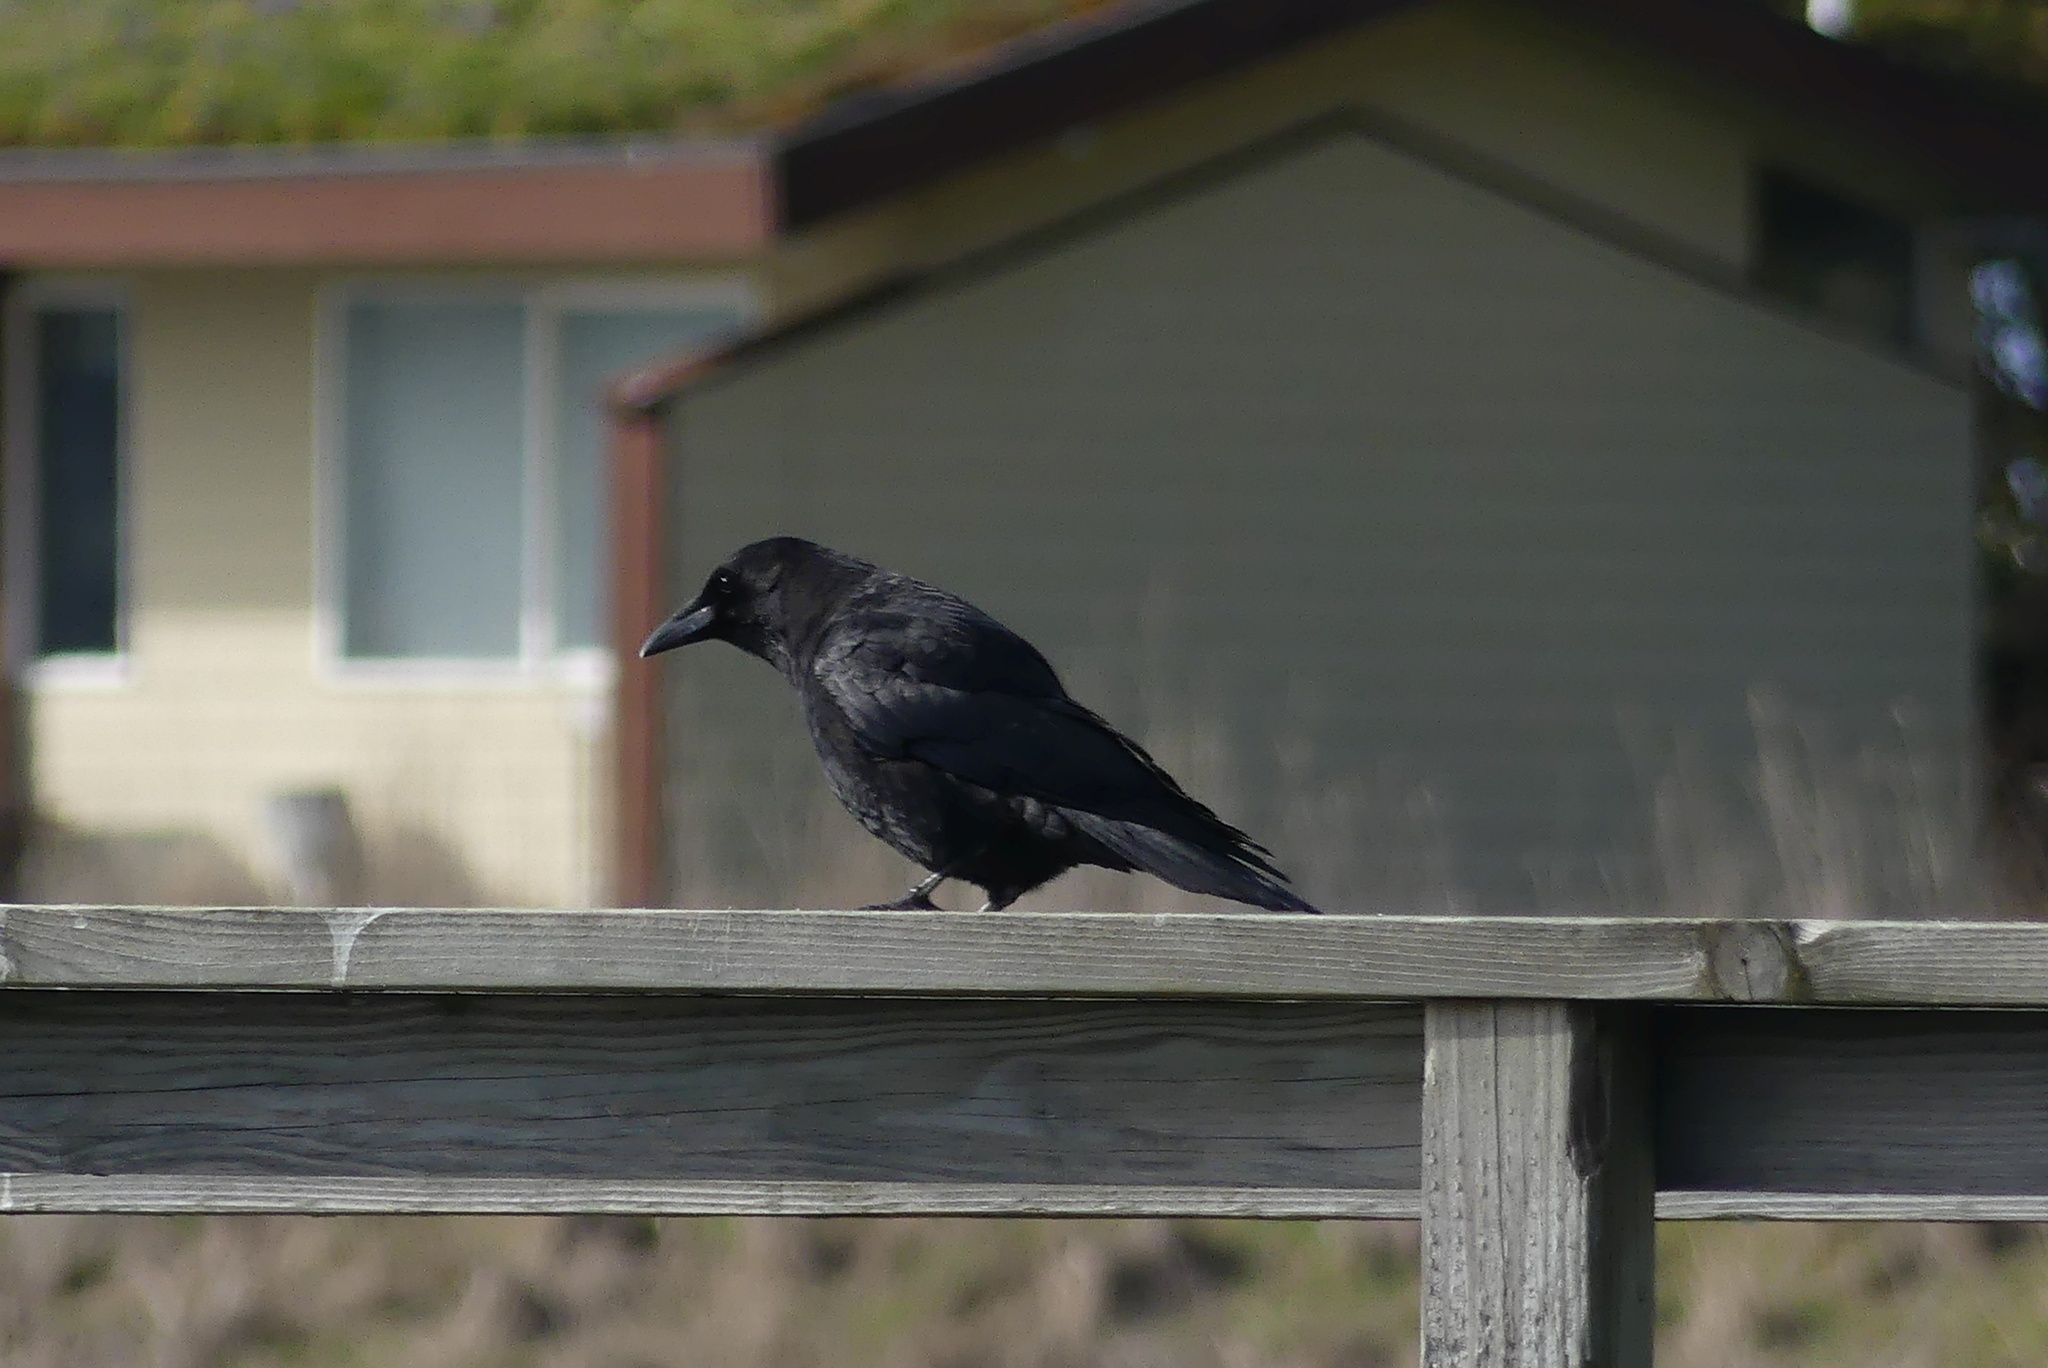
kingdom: Animalia
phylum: Chordata
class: Aves
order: Passeriformes
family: Corvidae
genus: Corvus
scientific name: Corvus brachyrhynchos
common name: American crow
